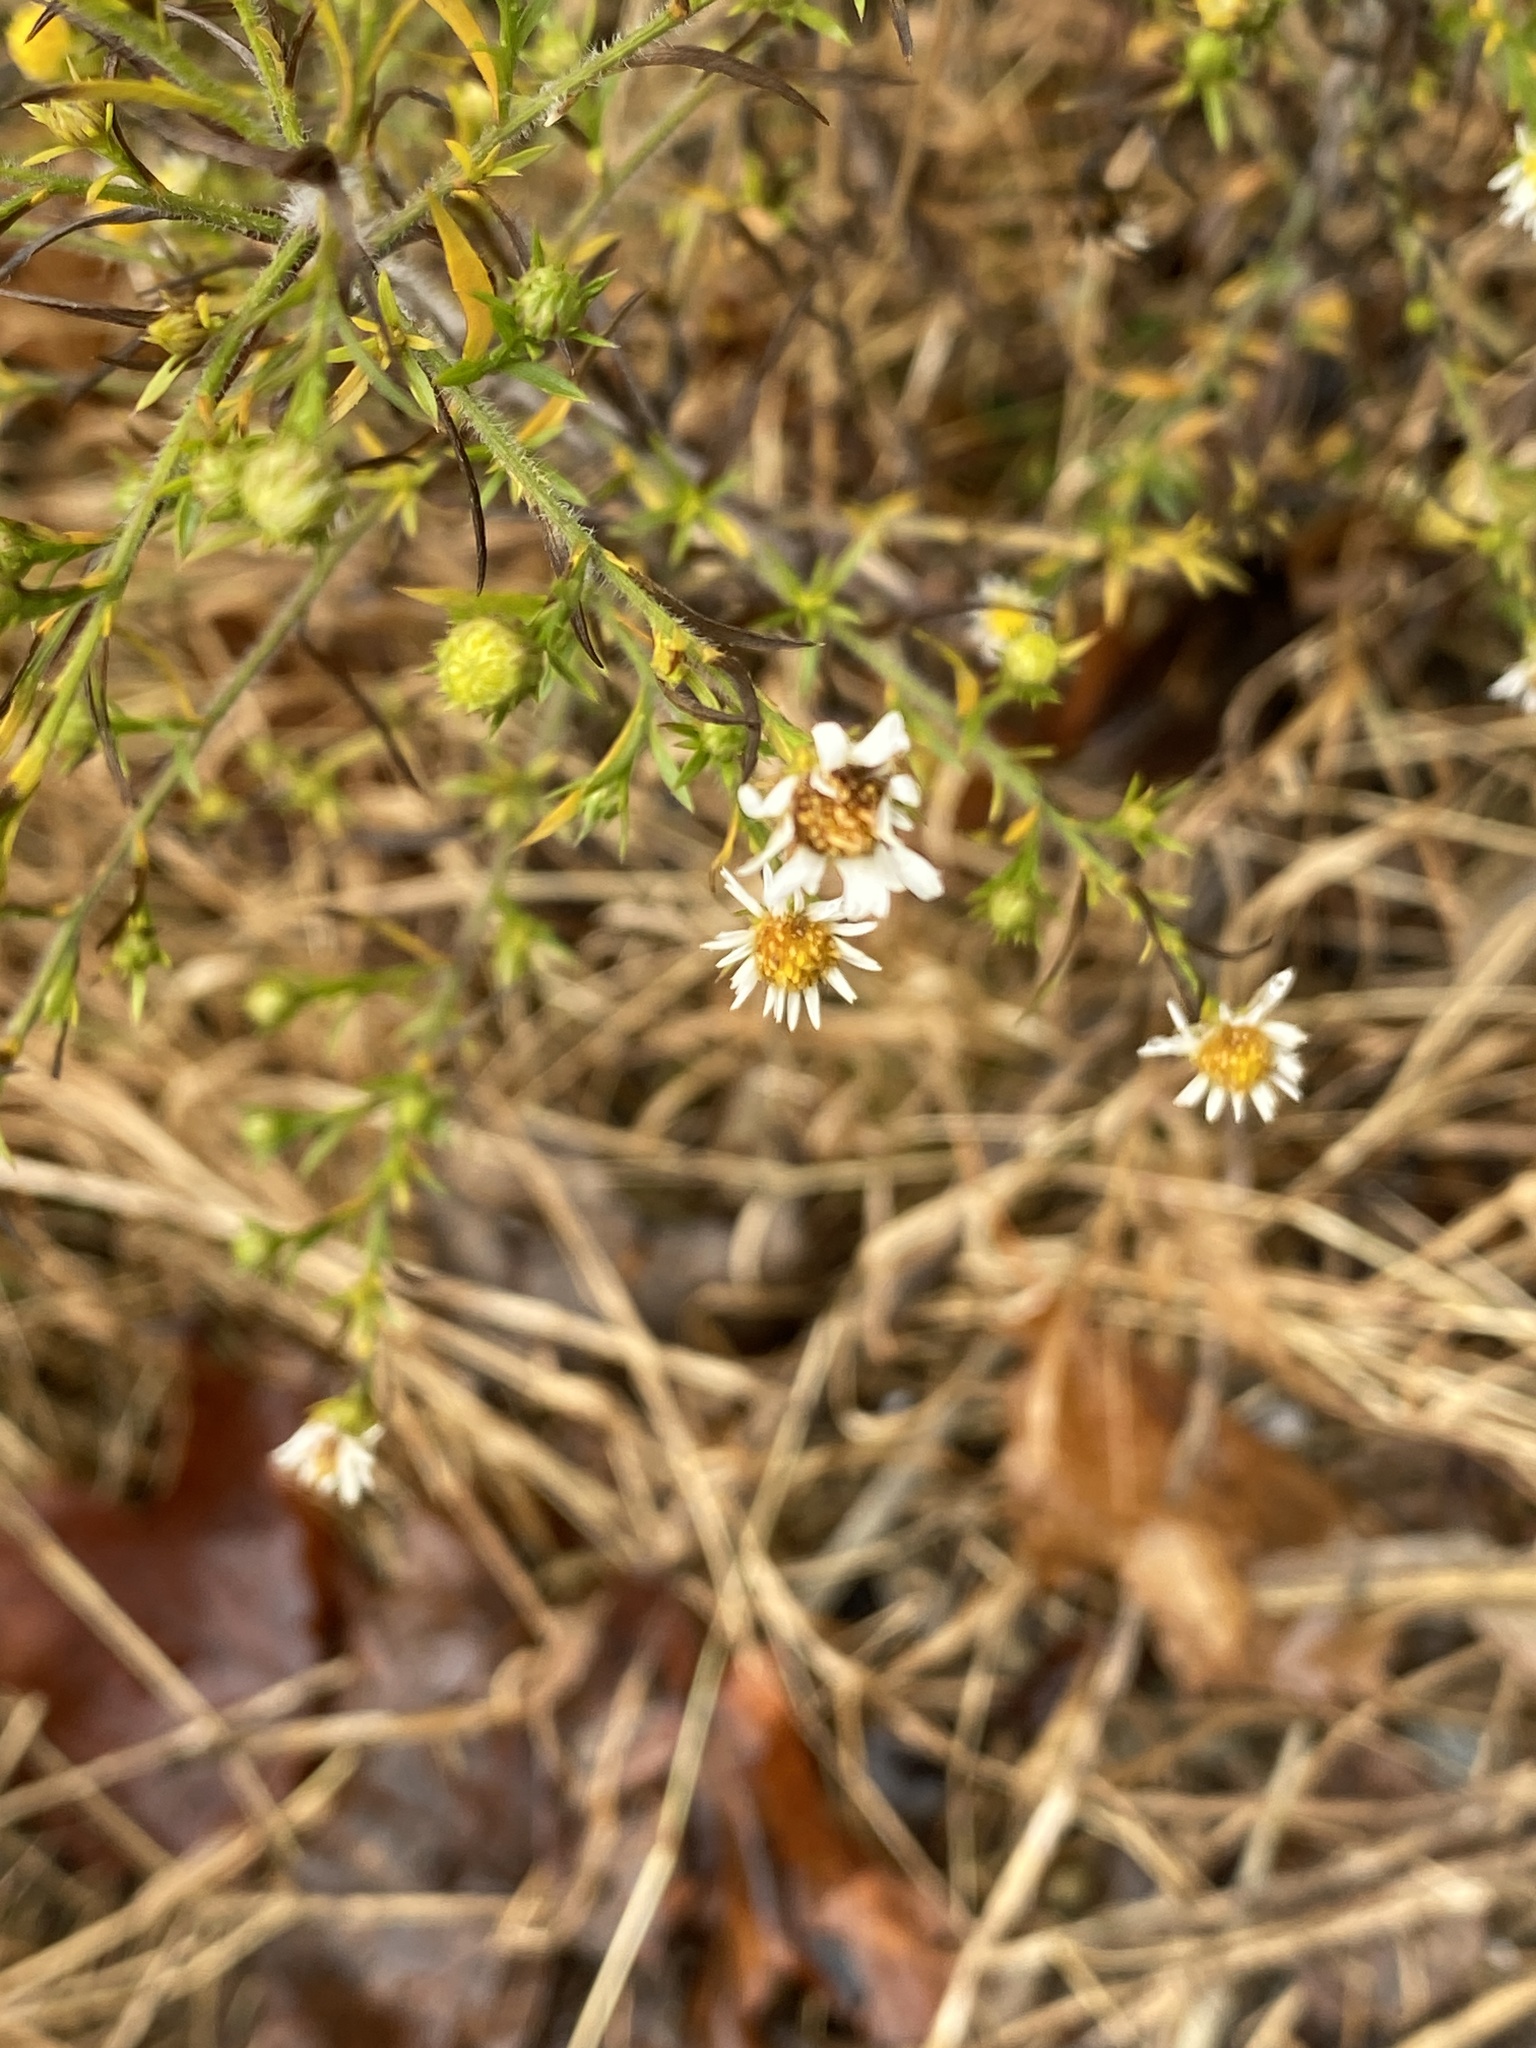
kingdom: Plantae
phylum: Tracheophyta
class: Magnoliopsida
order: Asterales
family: Asteraceae
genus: Symphyotrichum
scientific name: Symphyotrichum pilosum
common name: Awl aster
